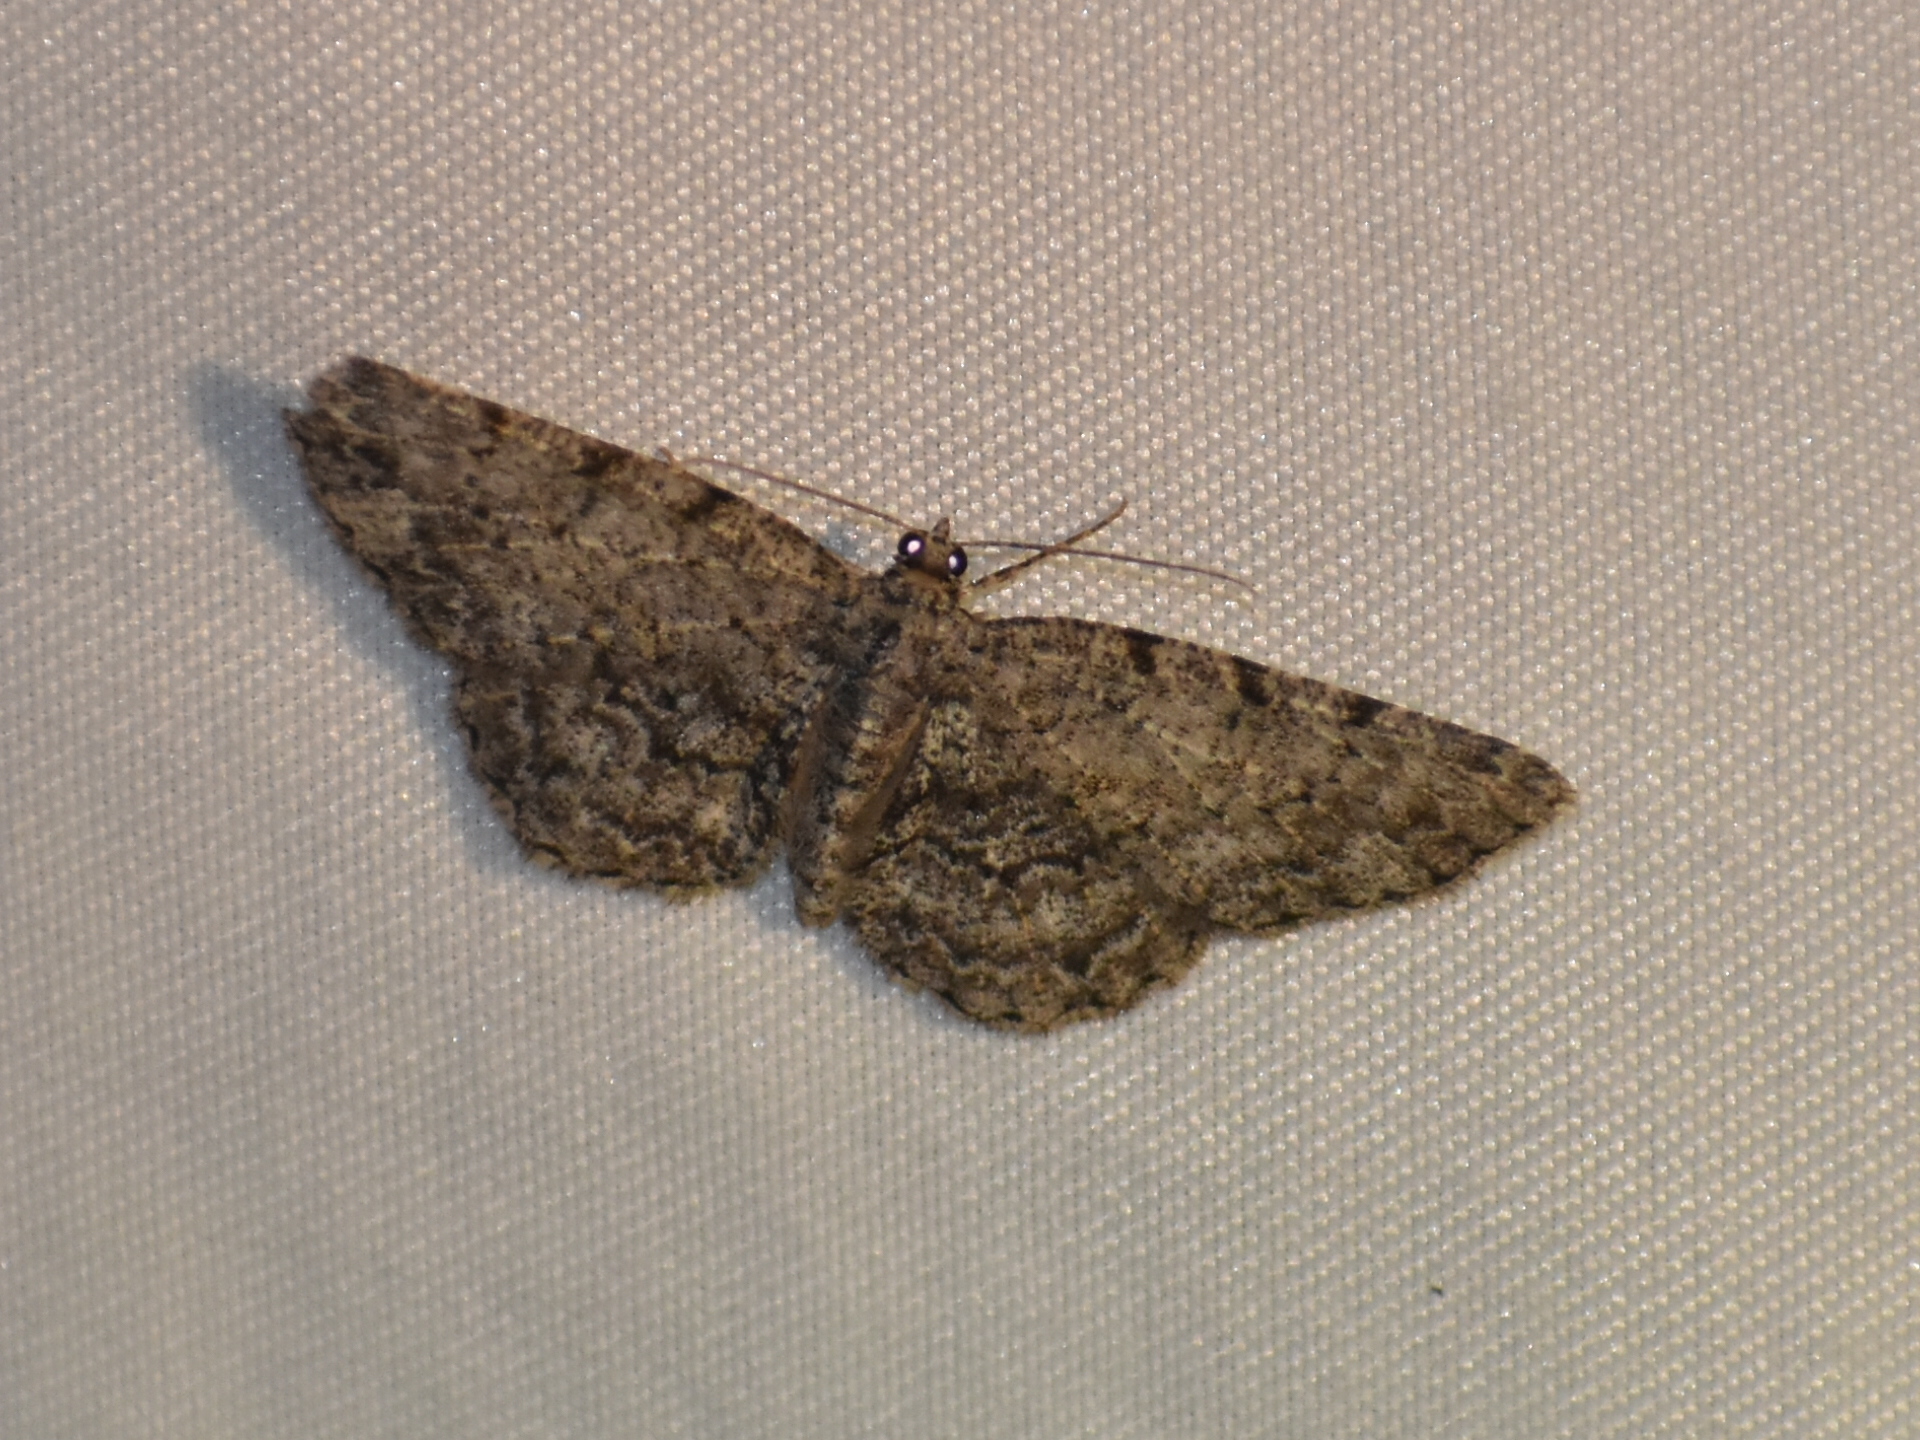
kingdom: Animalia
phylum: Arthropoda
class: Insecta
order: Lepidoptera
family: Geometridae
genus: Protoboarmia
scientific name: Protoboarmia porcelaria
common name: Porcelain gray
